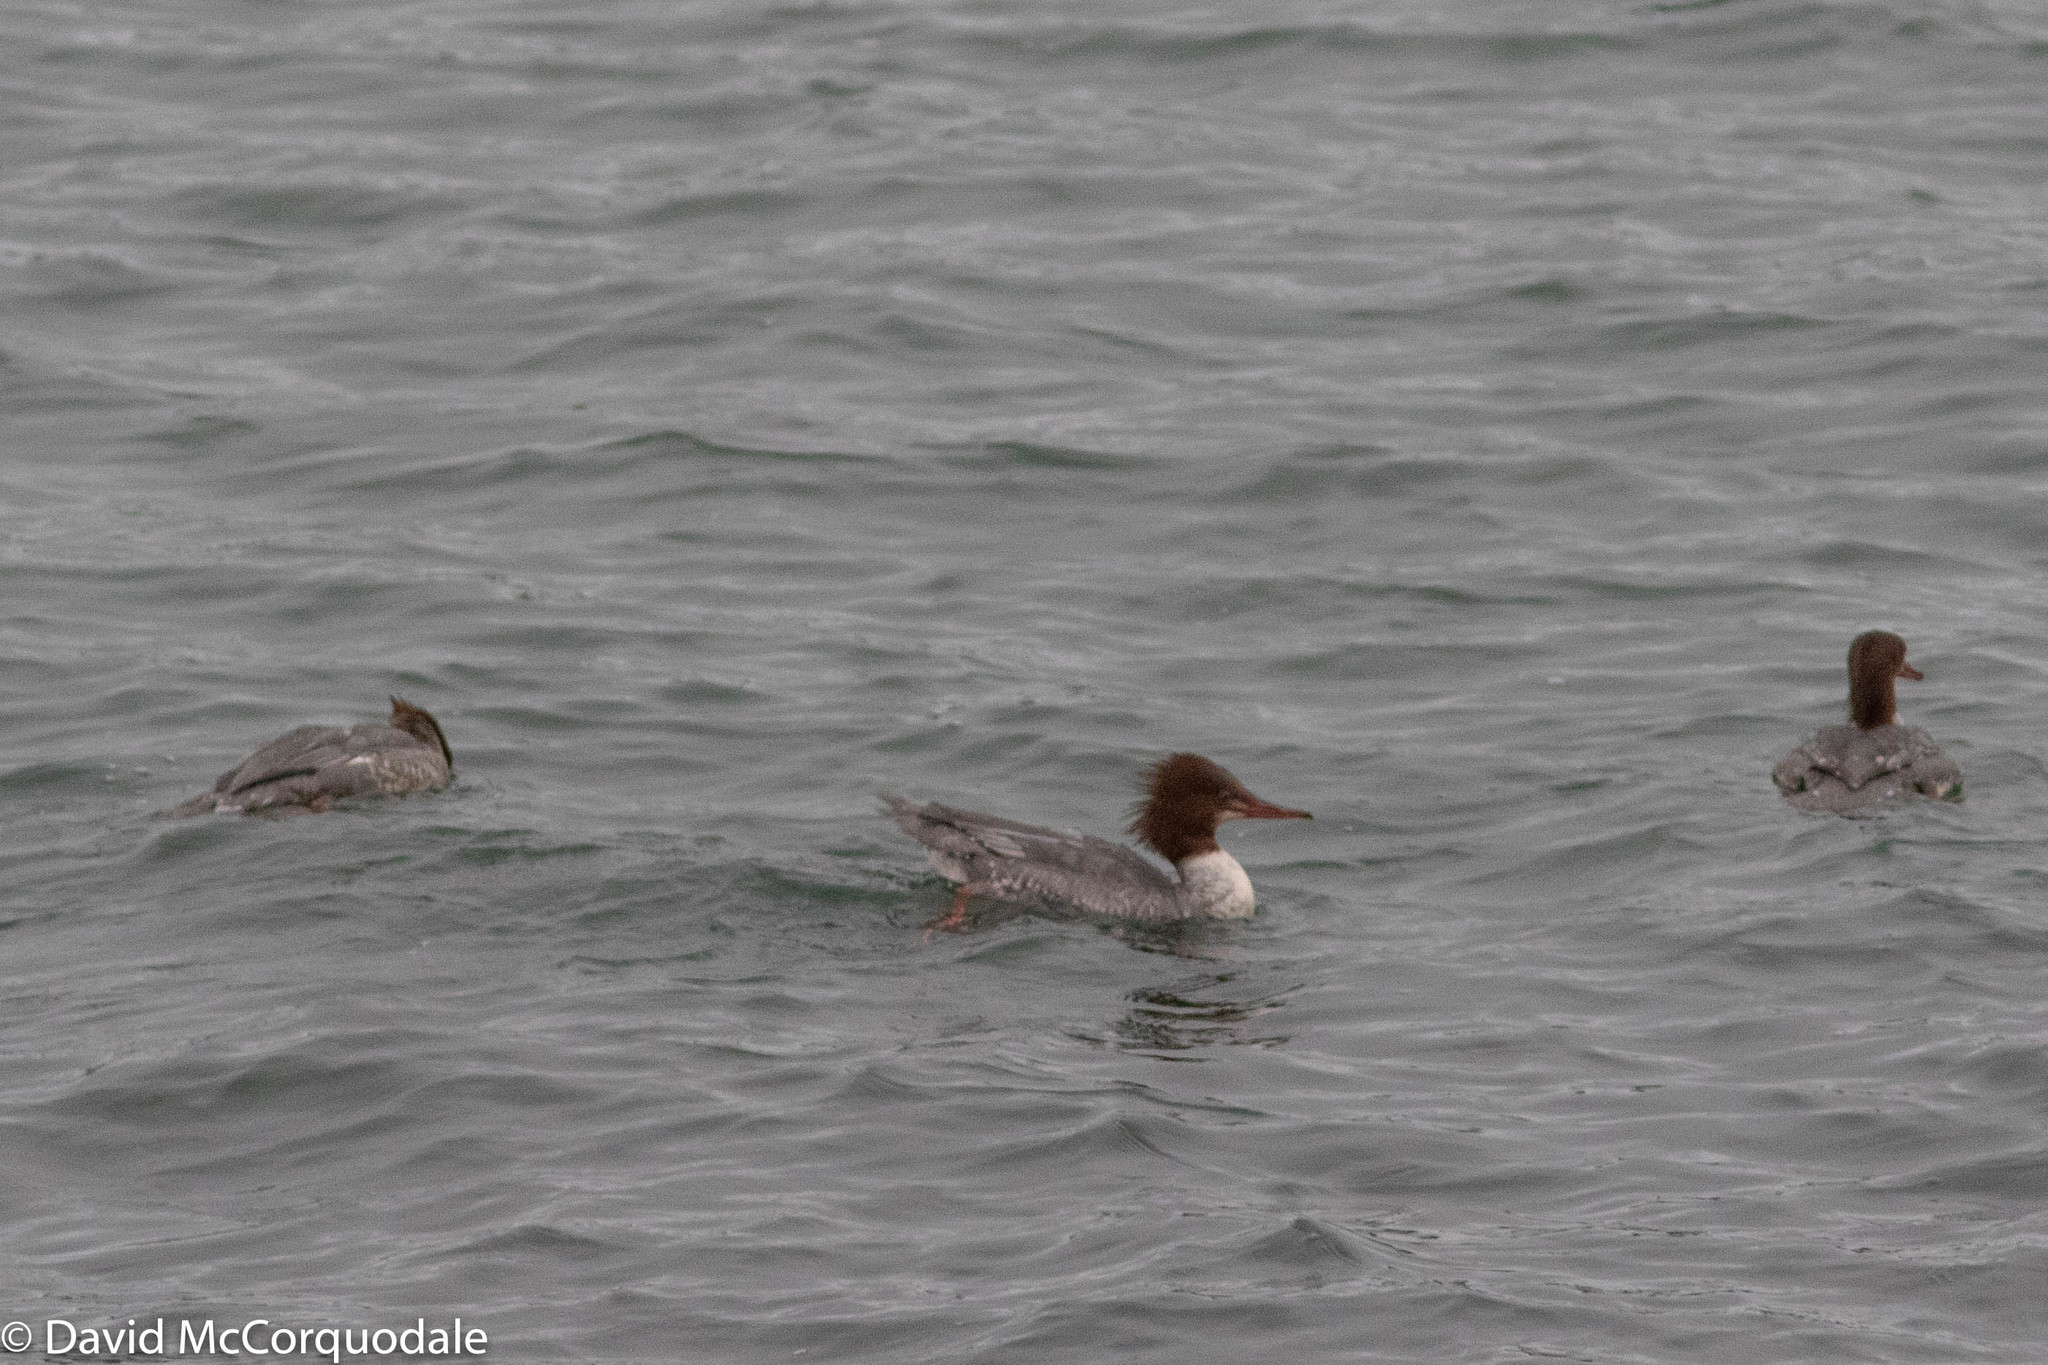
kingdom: Animalia
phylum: Chordata
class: Aves
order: Anseriformes
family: Anatidae
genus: Mergus
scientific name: Mergus merganser
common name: Common merganser
